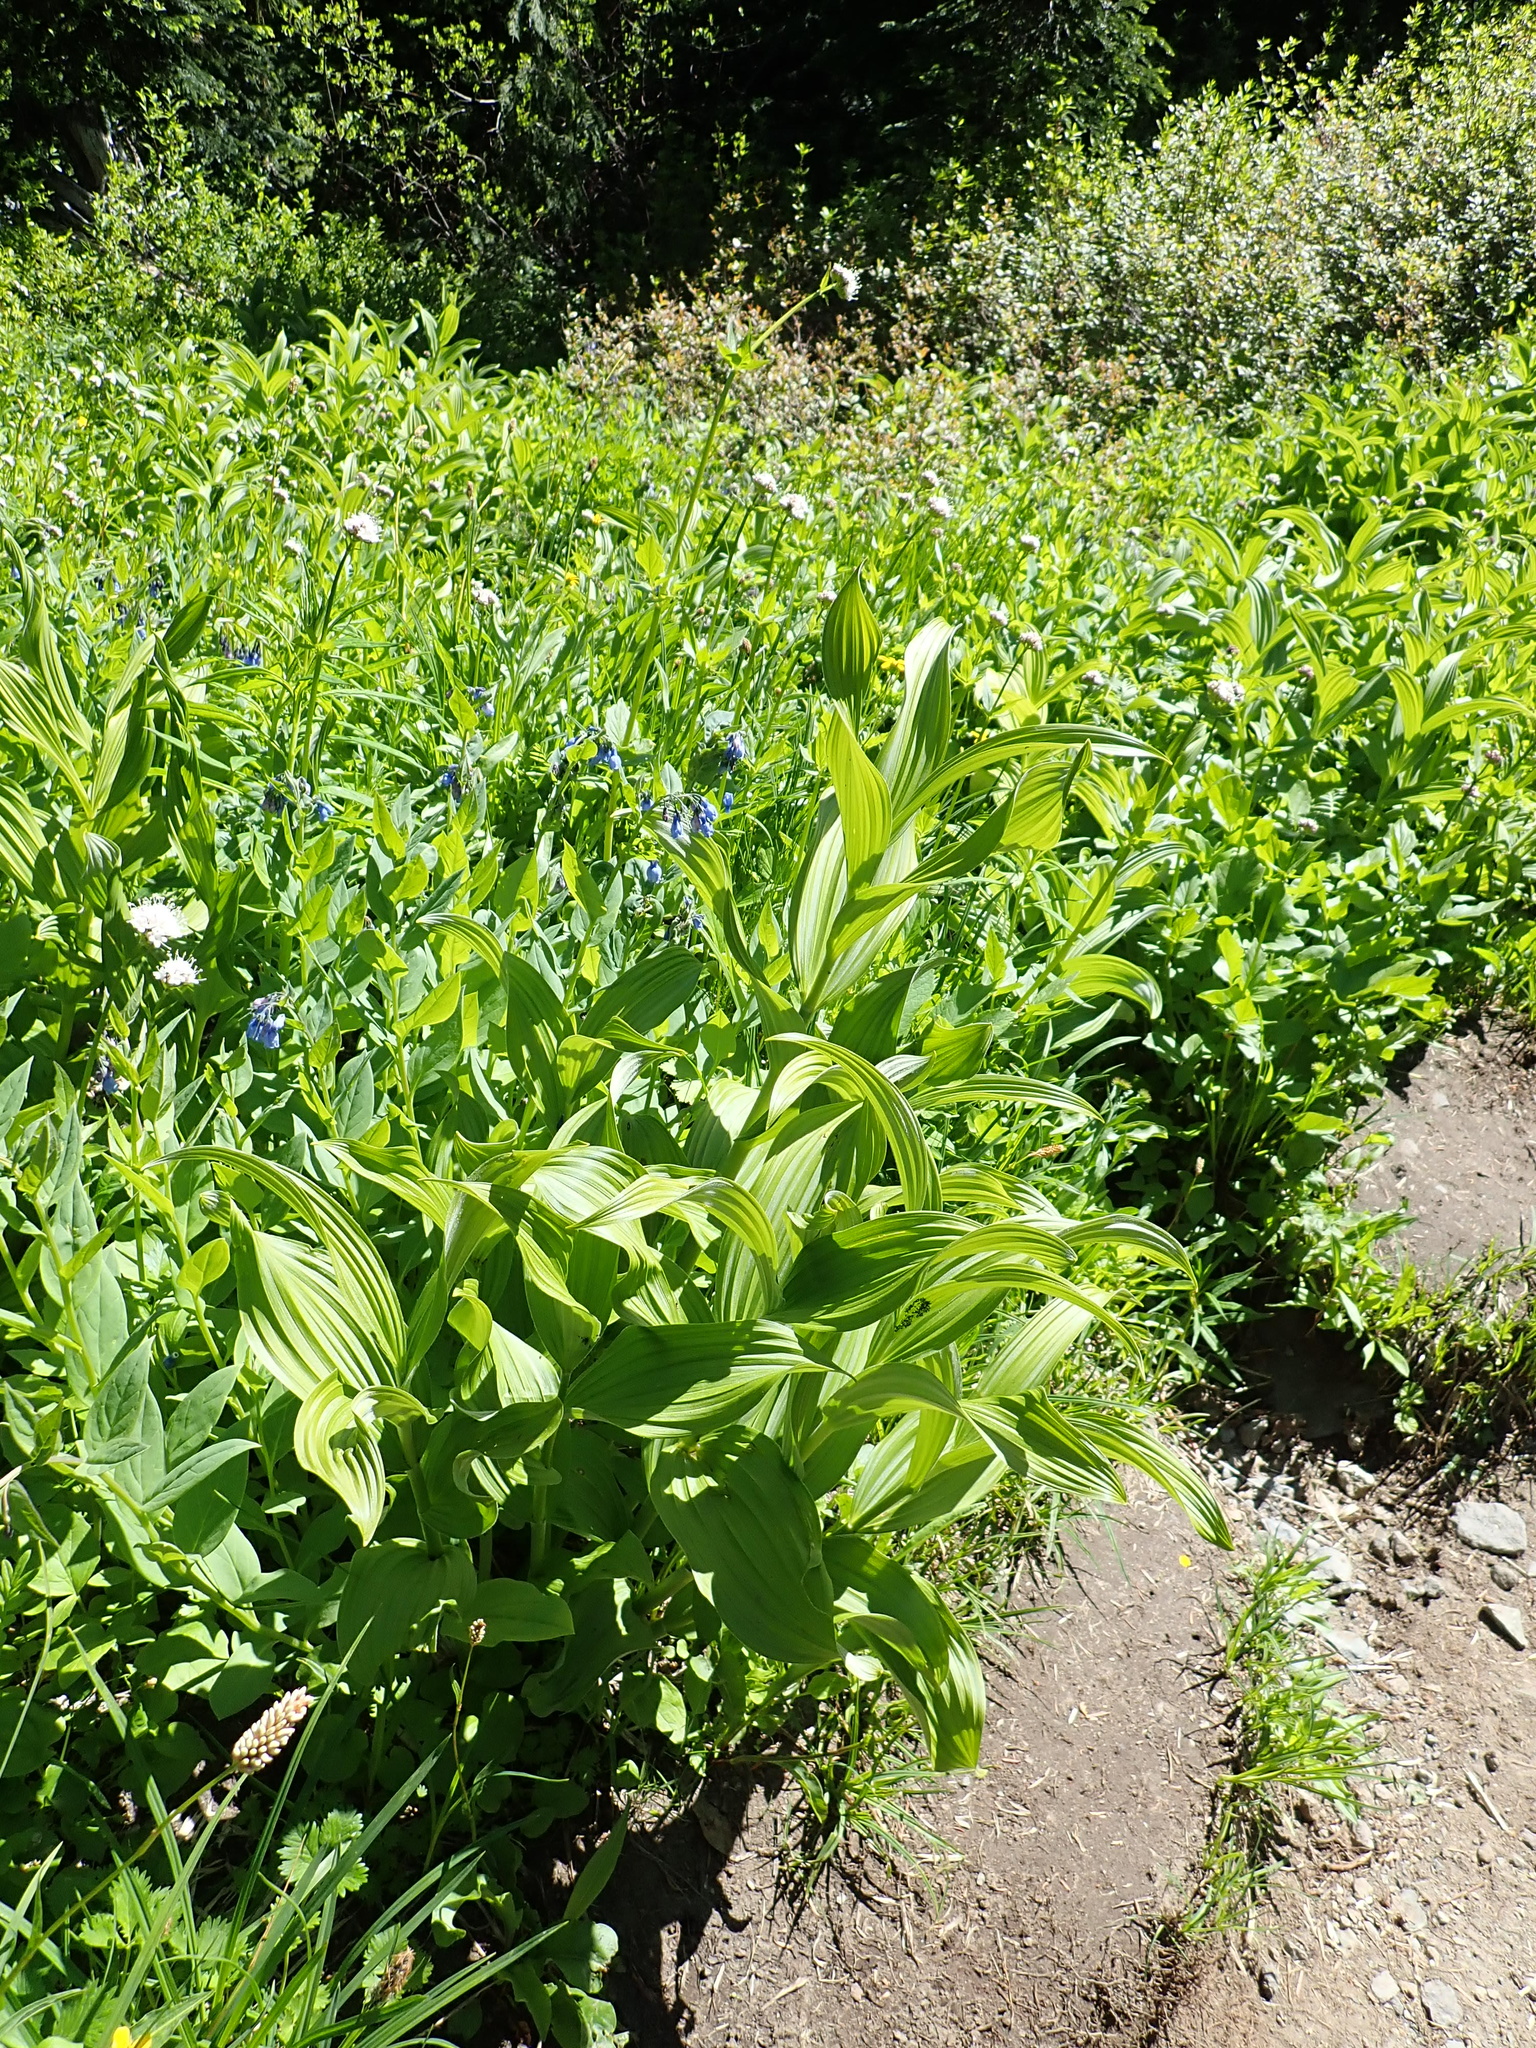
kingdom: Plantae
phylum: Tracheophyta
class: Liliopsida
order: Liliales
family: Melanthiaceae
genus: Veratrum
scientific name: Veratrum viride
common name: American false hellebore
